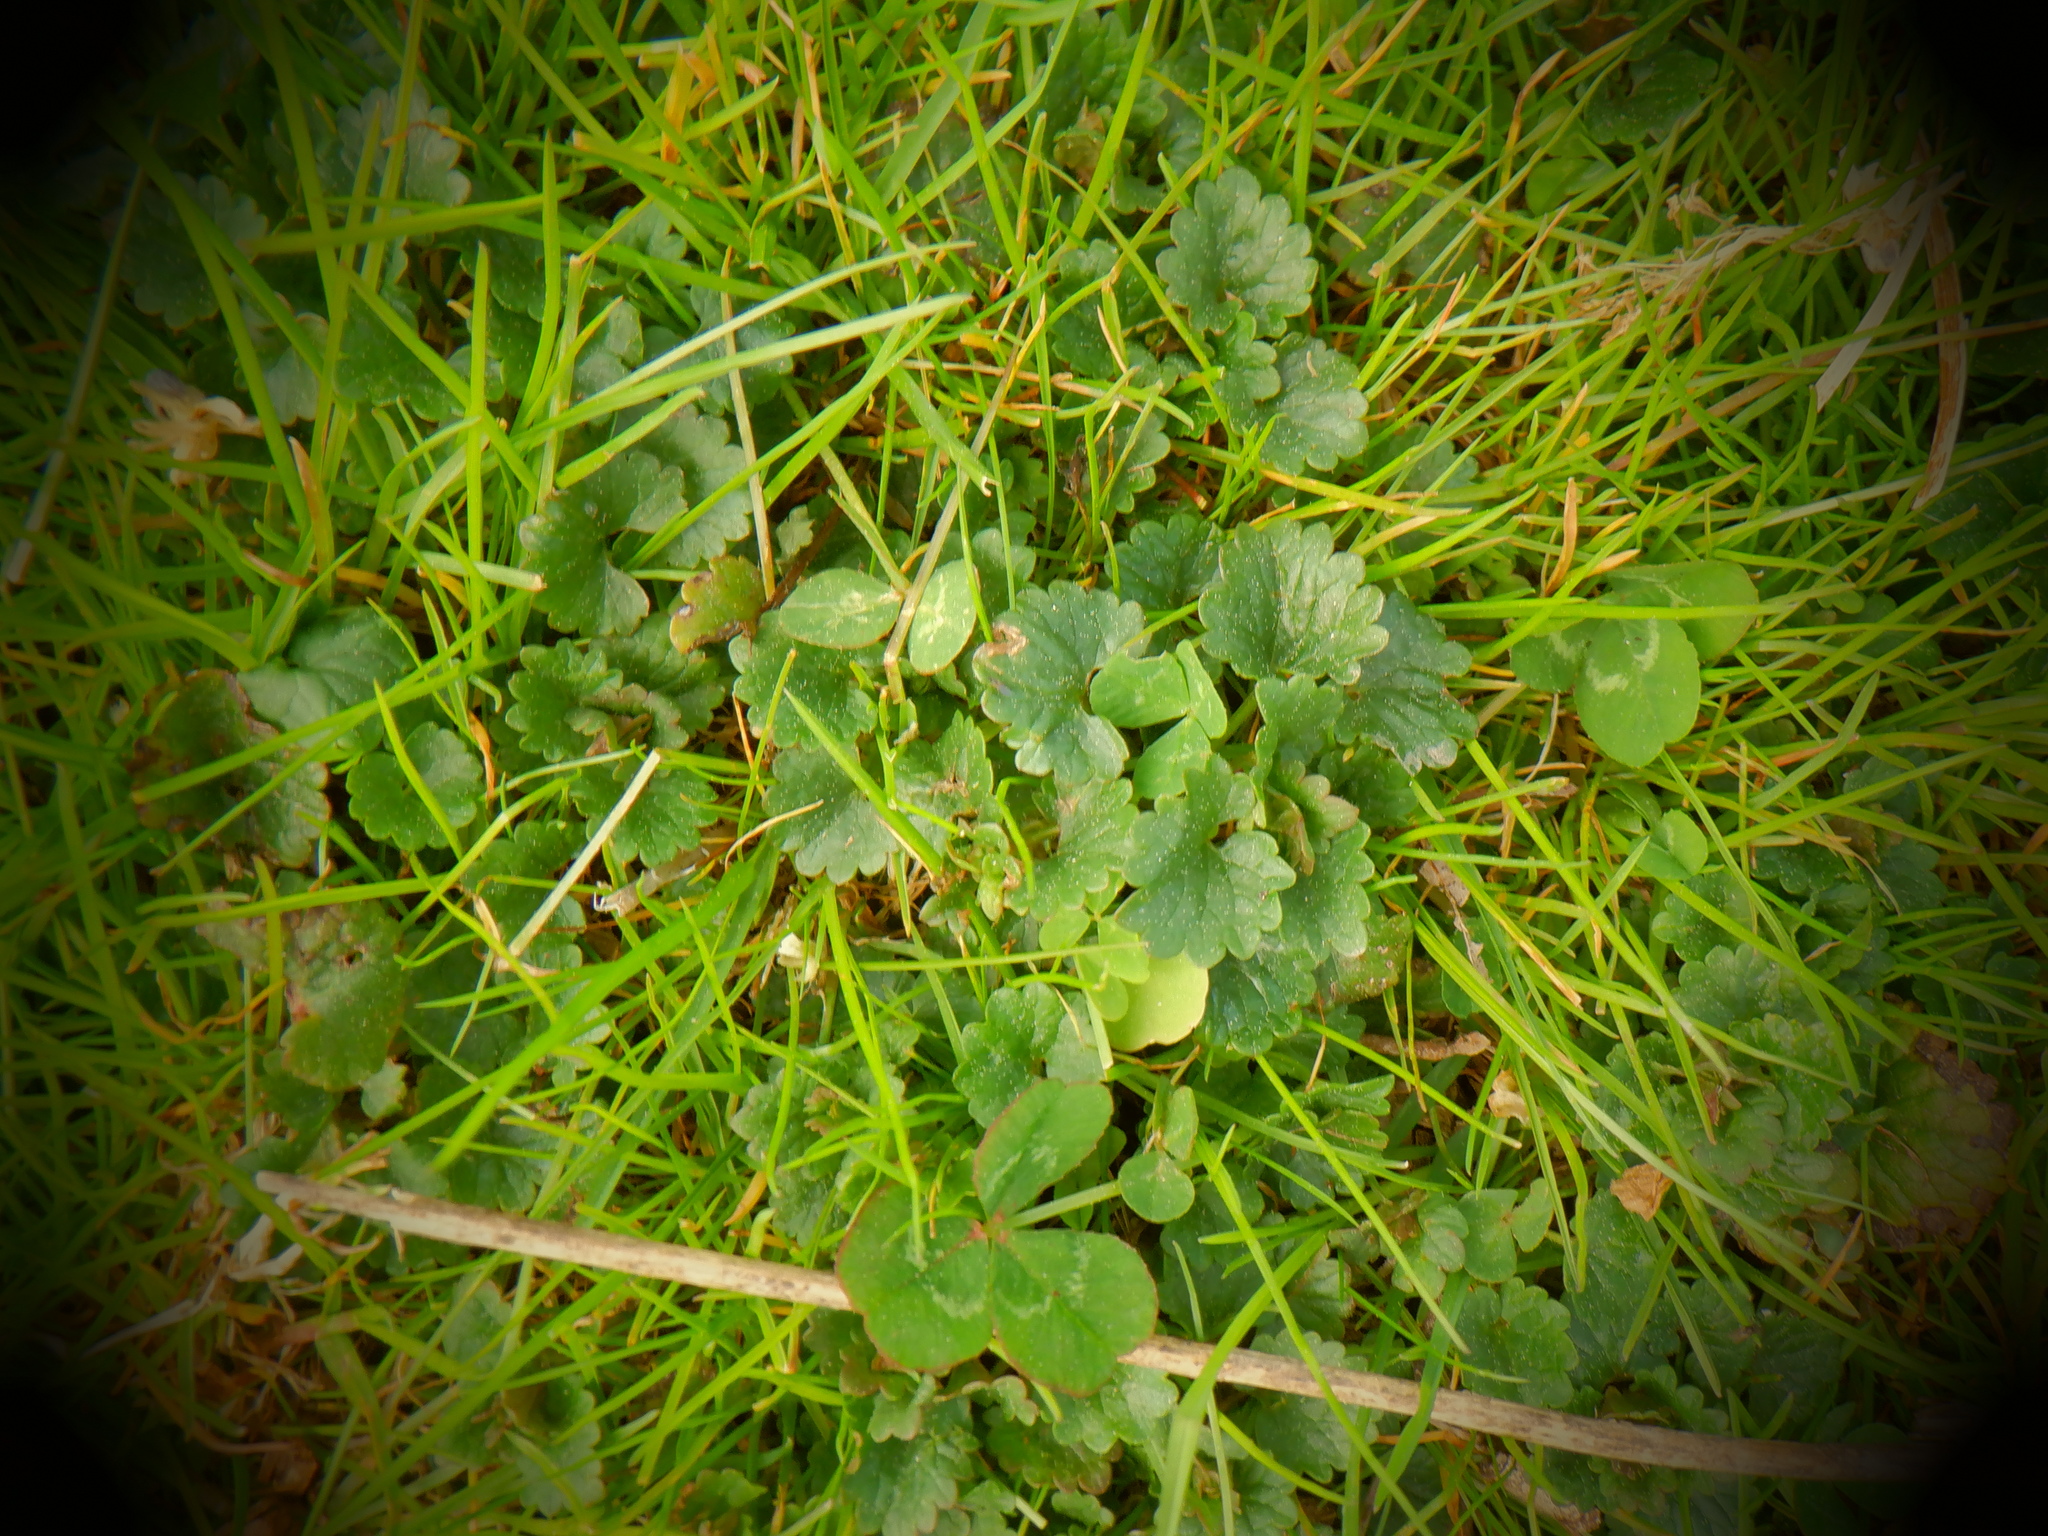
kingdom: Plantae
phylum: Tracheophyta
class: Magnoliopsida
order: Lamiales
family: Lamiaceae
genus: Glechoma
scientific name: Glechoma hederacea
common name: Ground ivy
